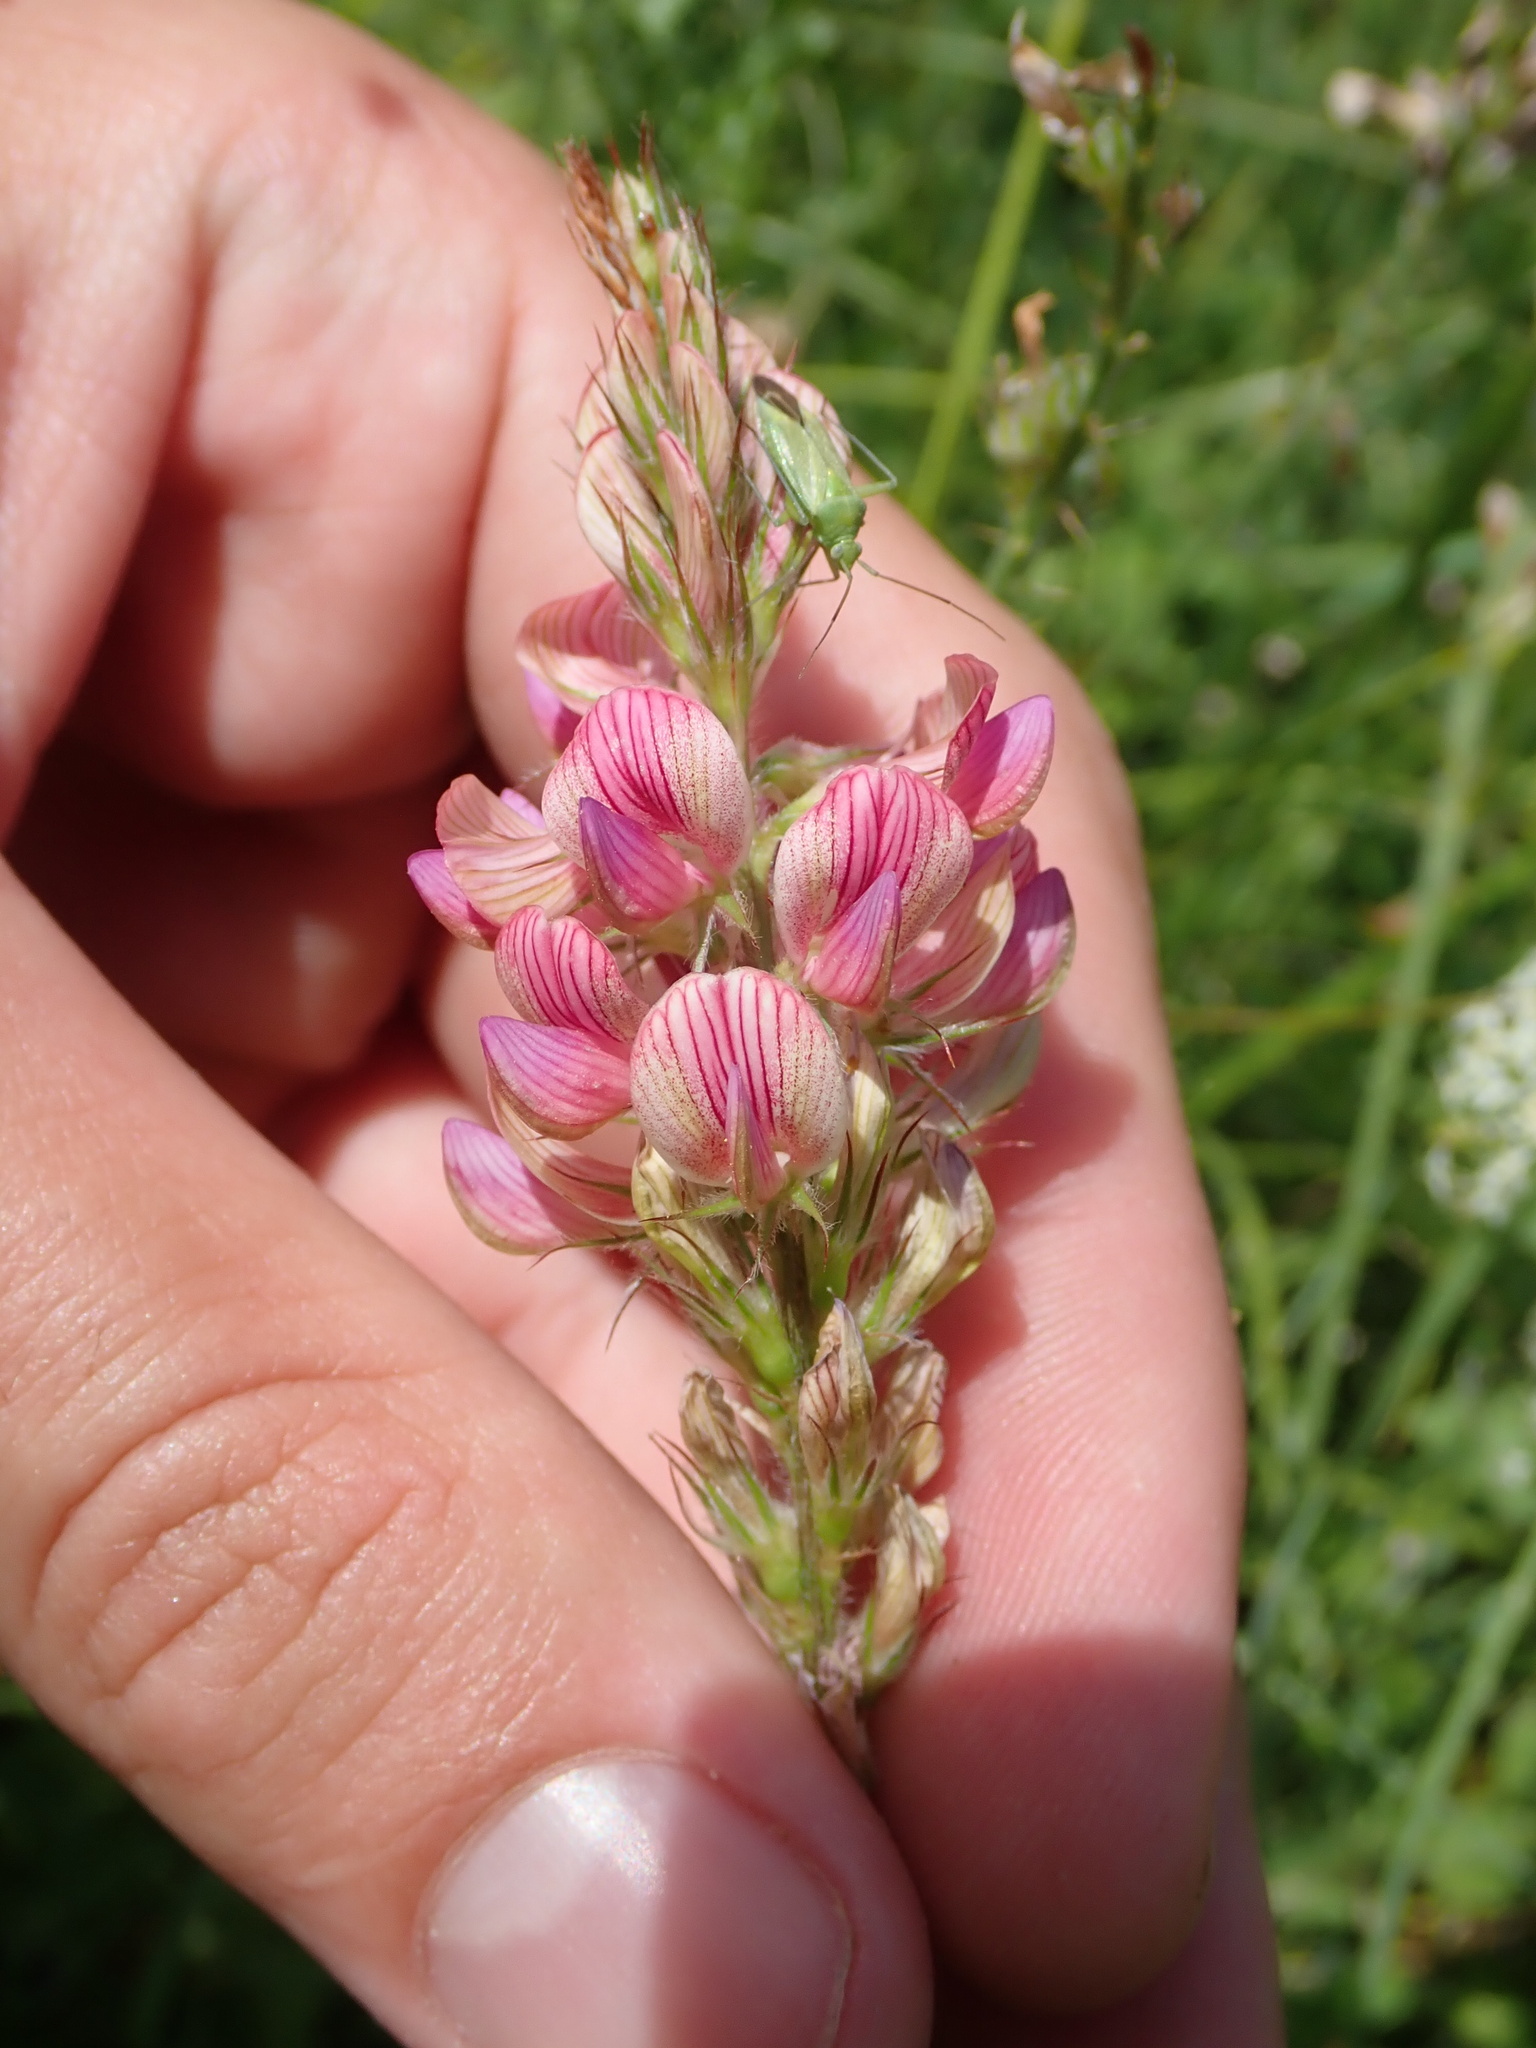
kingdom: Plantae
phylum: Tracheophyta
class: Magnoliopsida
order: Fabales
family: Fabaceae
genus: Onobrychis
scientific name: Onobrychis viciifolia
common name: Sainfoin
